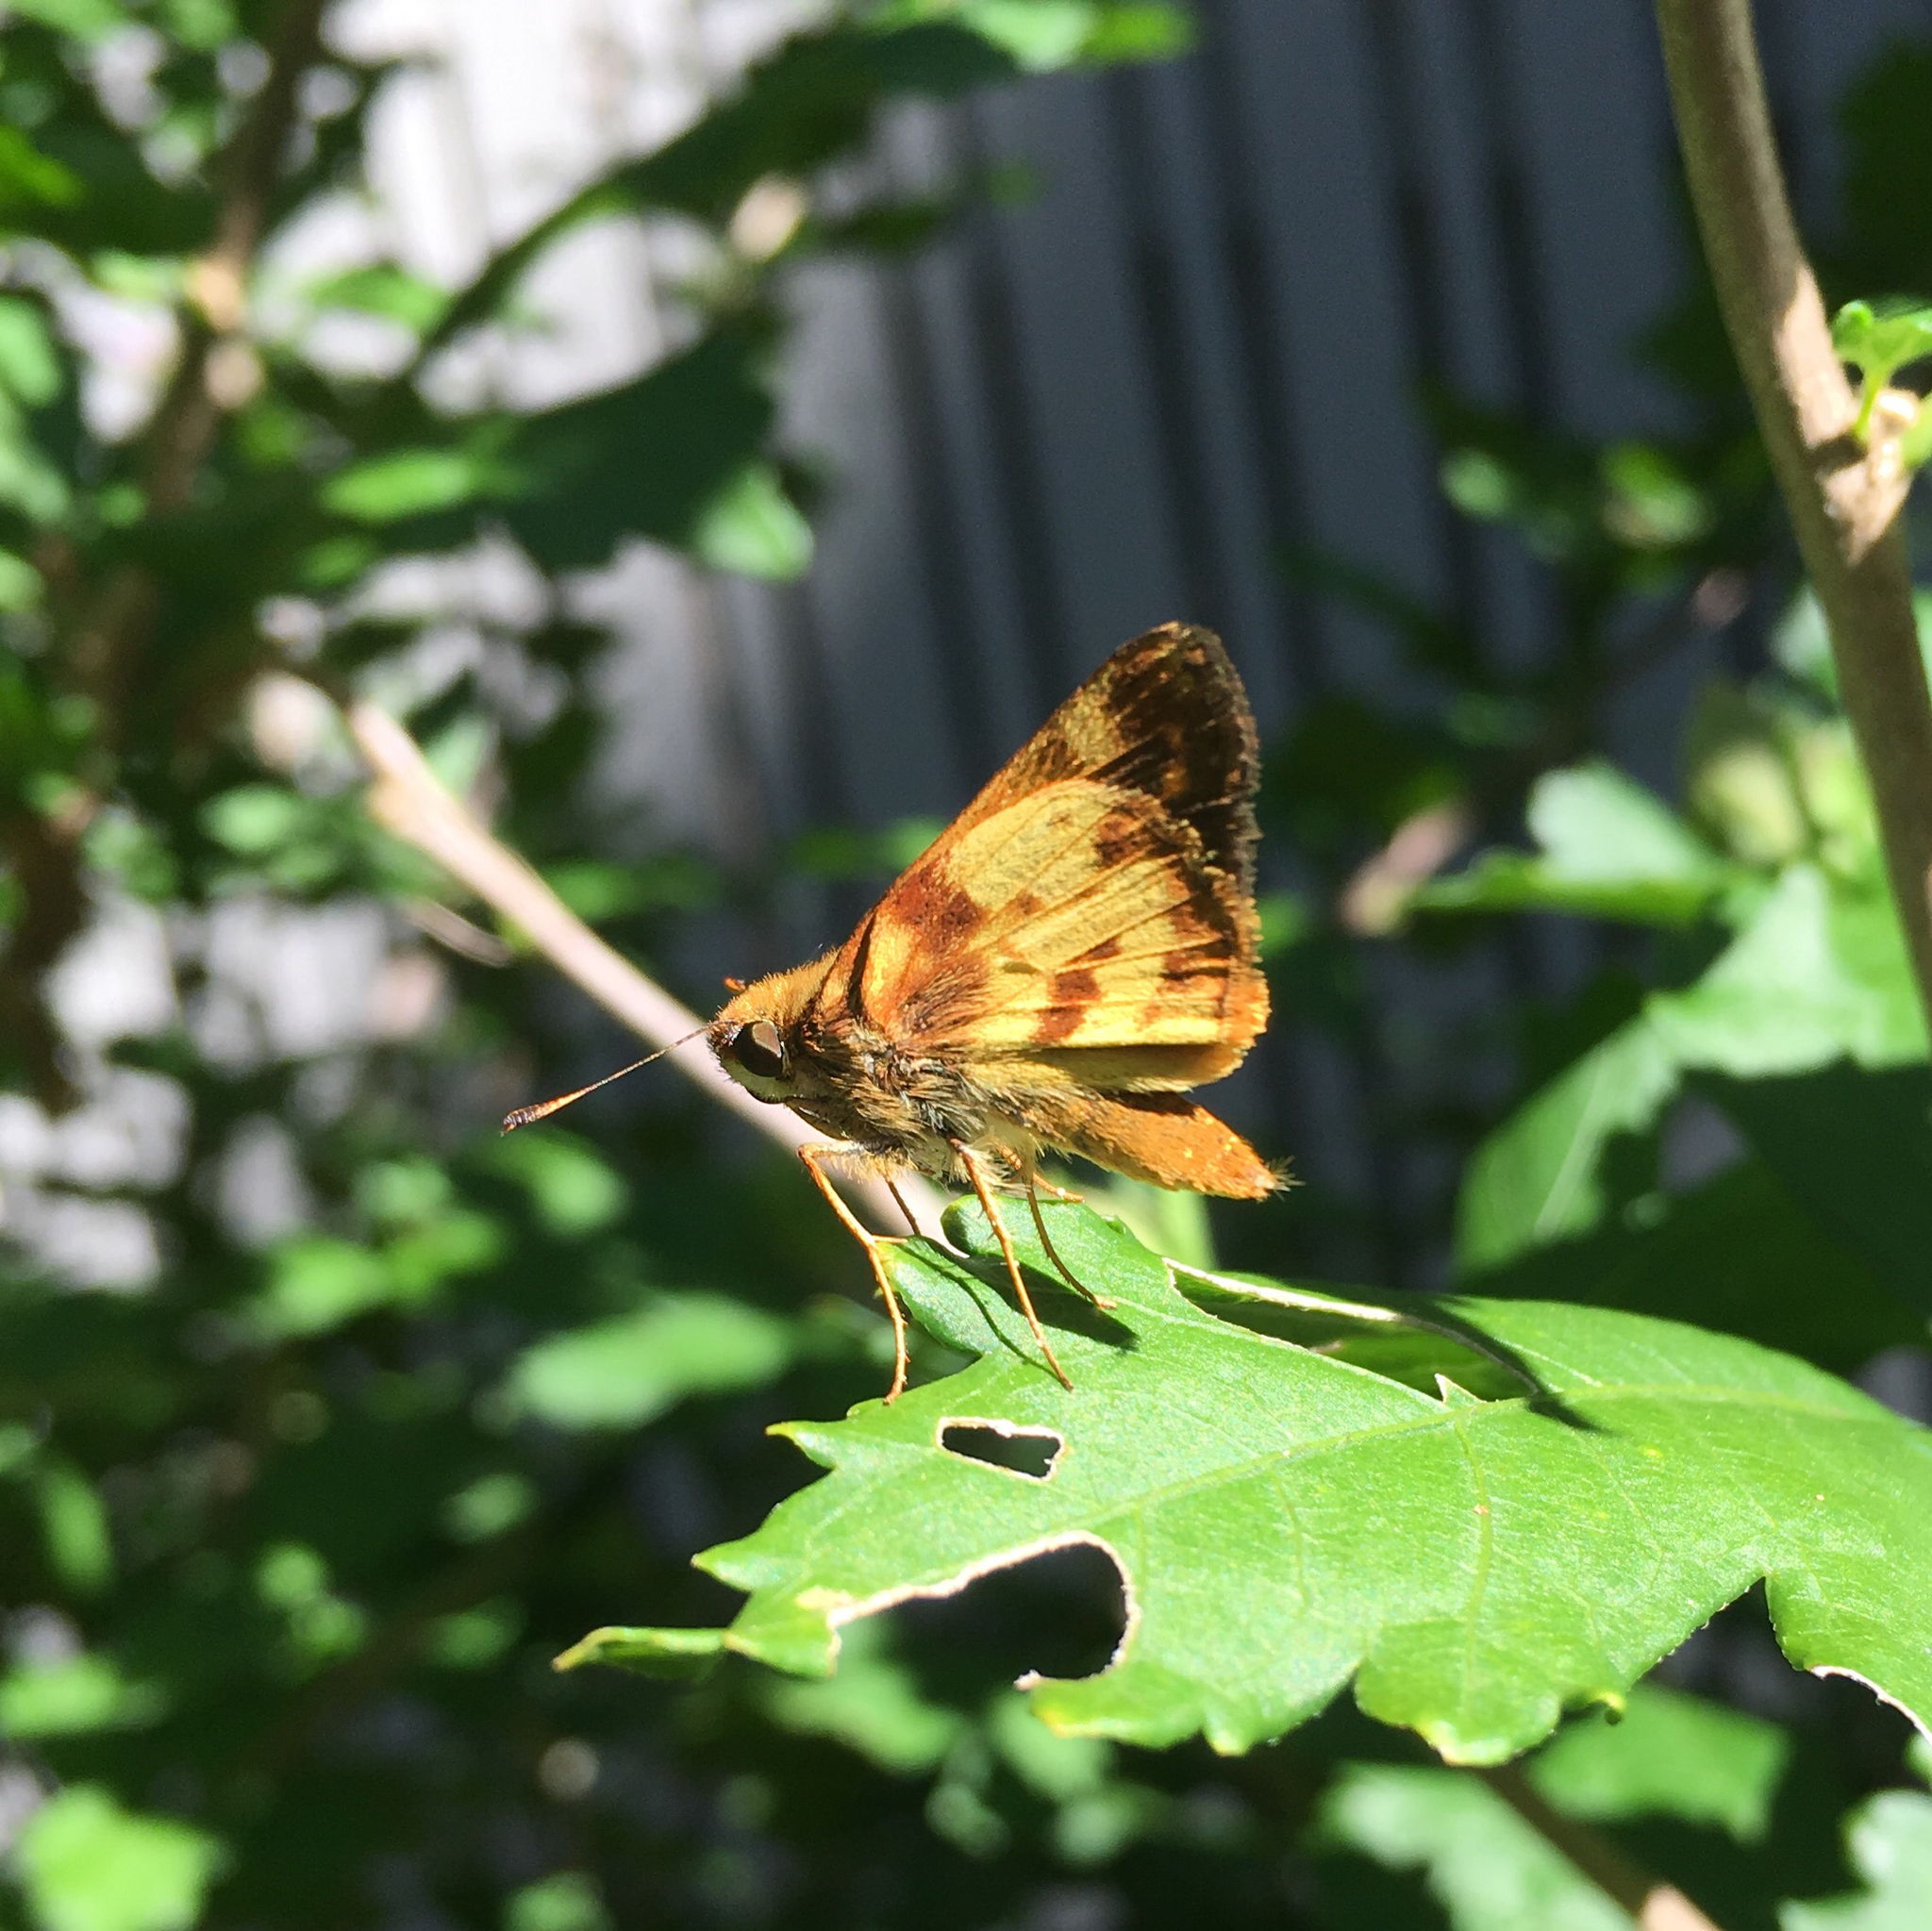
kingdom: Animalia
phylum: Arthropoda
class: Insecta
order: Lepidoptera
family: Hesperiidae
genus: Lon
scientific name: Lon zabulon
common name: Zabulon skipper
